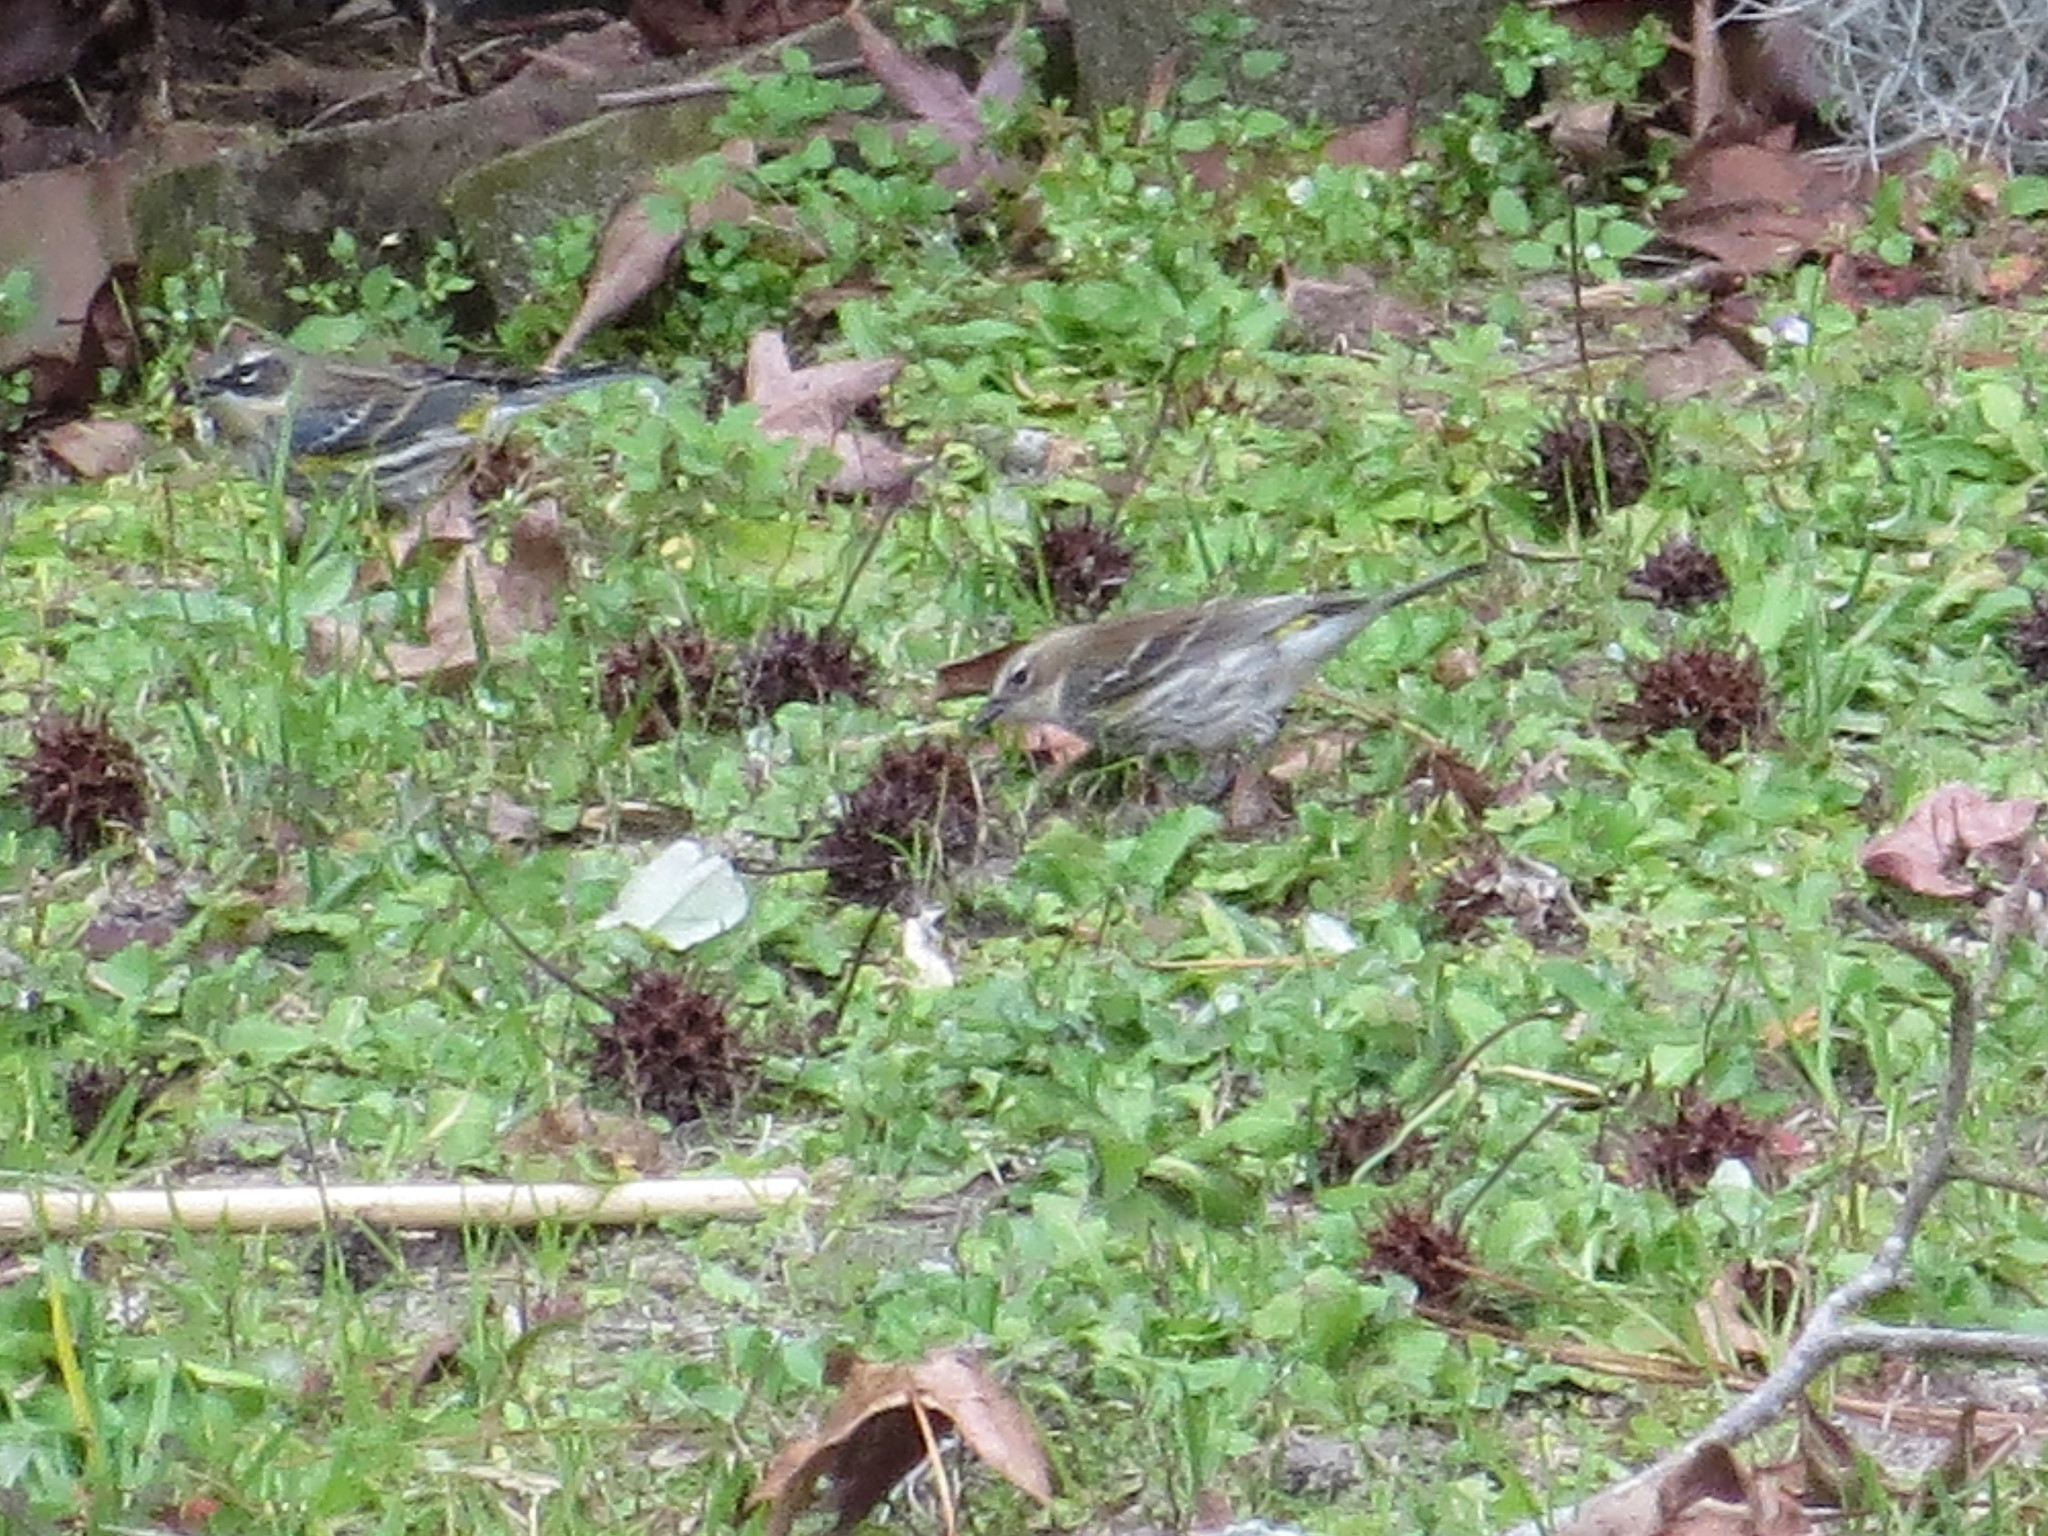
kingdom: Animalia
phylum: Chordata
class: Aves
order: Passeriformes
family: Parulidae
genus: Setophaga
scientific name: Setophaga coronata
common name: Myrtle warbler
